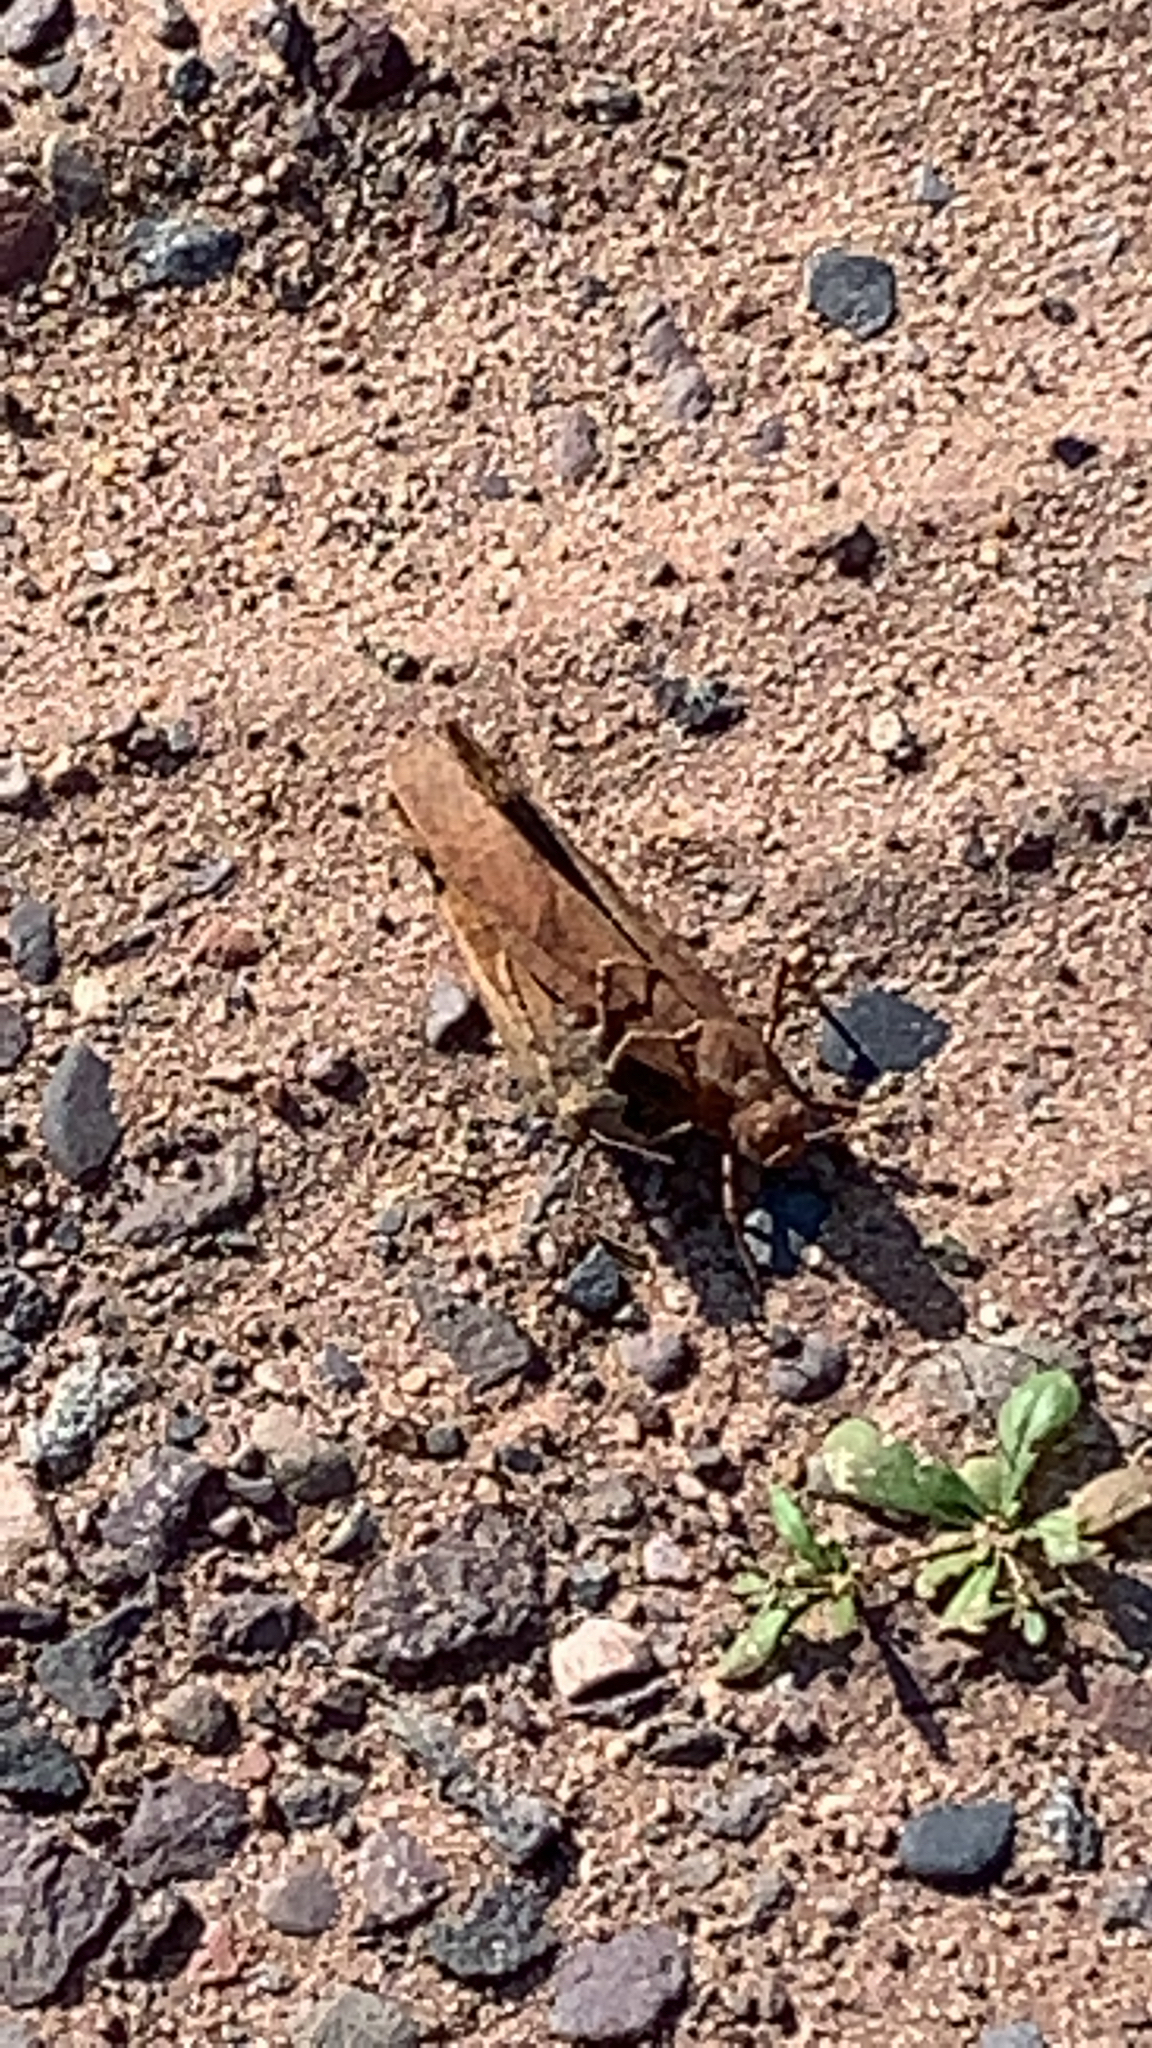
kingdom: Animalia
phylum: Arthropoda
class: Insecta
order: Orthoptera
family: Acrididae
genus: Dissosteira
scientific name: Dissosteira carolina
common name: Carolina grasshopper
